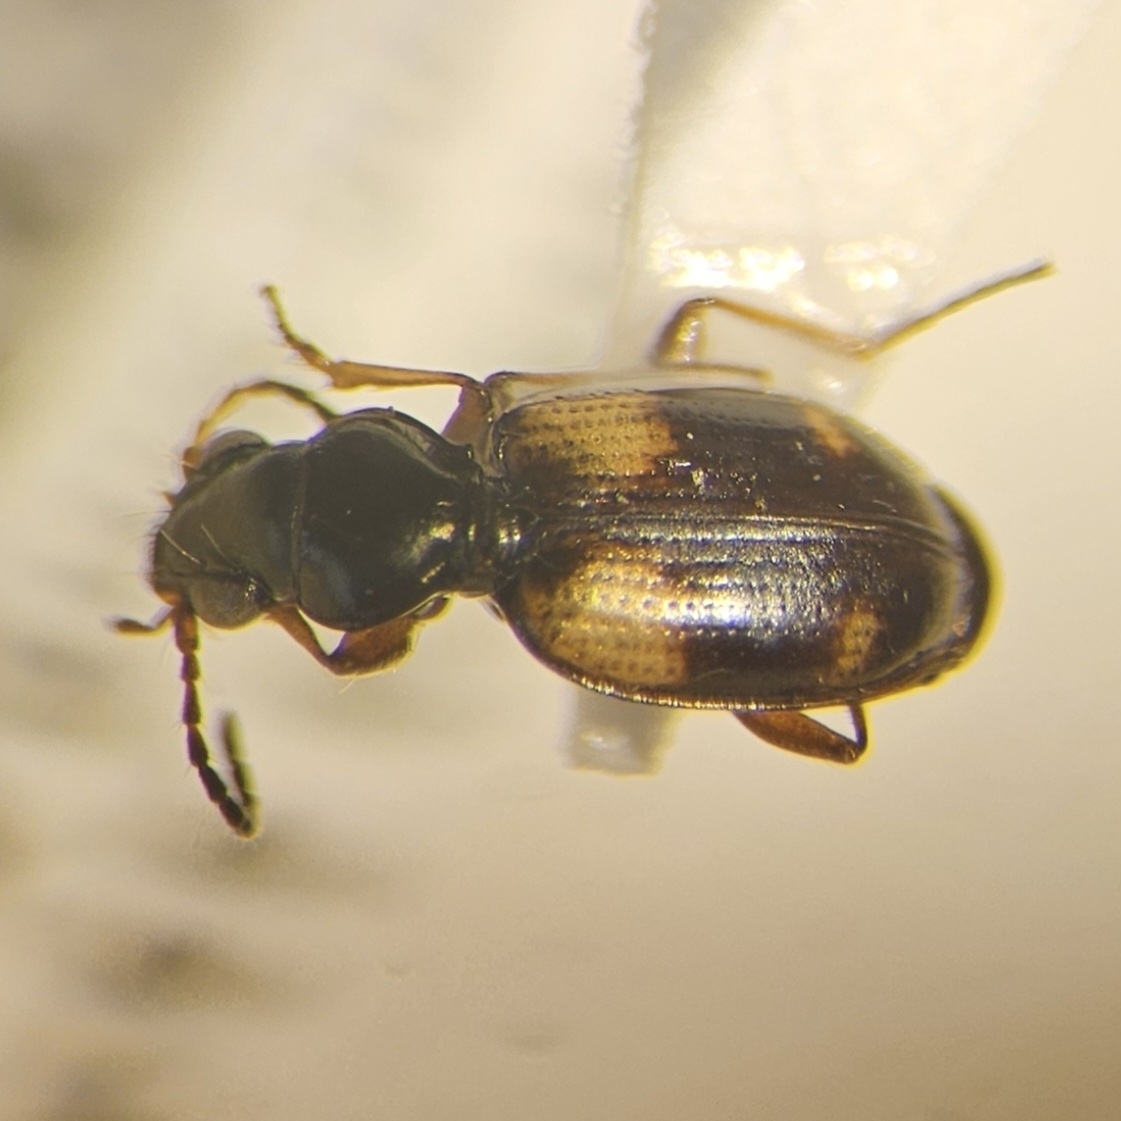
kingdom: Animalia
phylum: Arthropoda
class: Insecta
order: Coleoptera
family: Carabidae
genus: Bembidion
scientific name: Bembidion quadrimaculatum
